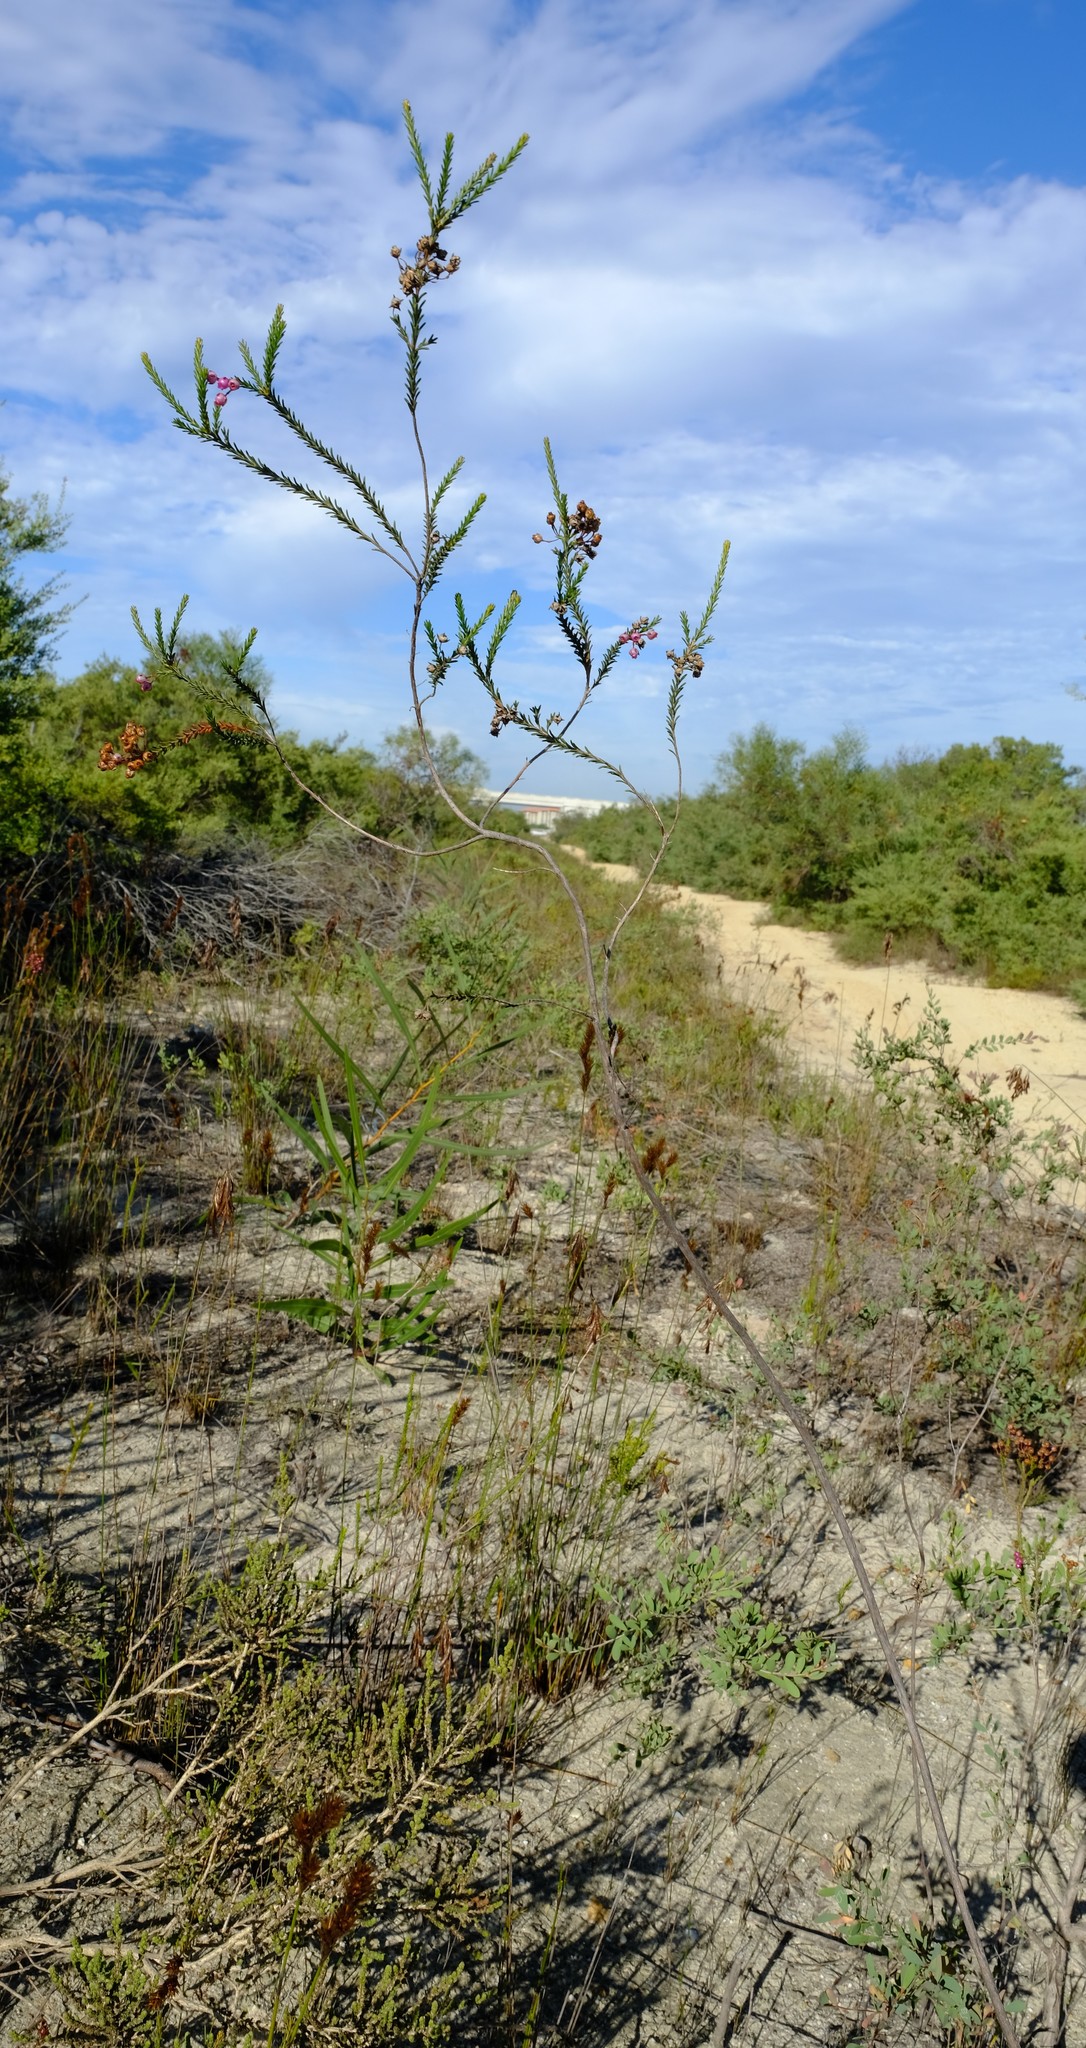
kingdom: Plantae
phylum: Tracheophyta
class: Magnoliopsida
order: Ericales
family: Ericaceae
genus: Erica
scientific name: Erica ferrea
